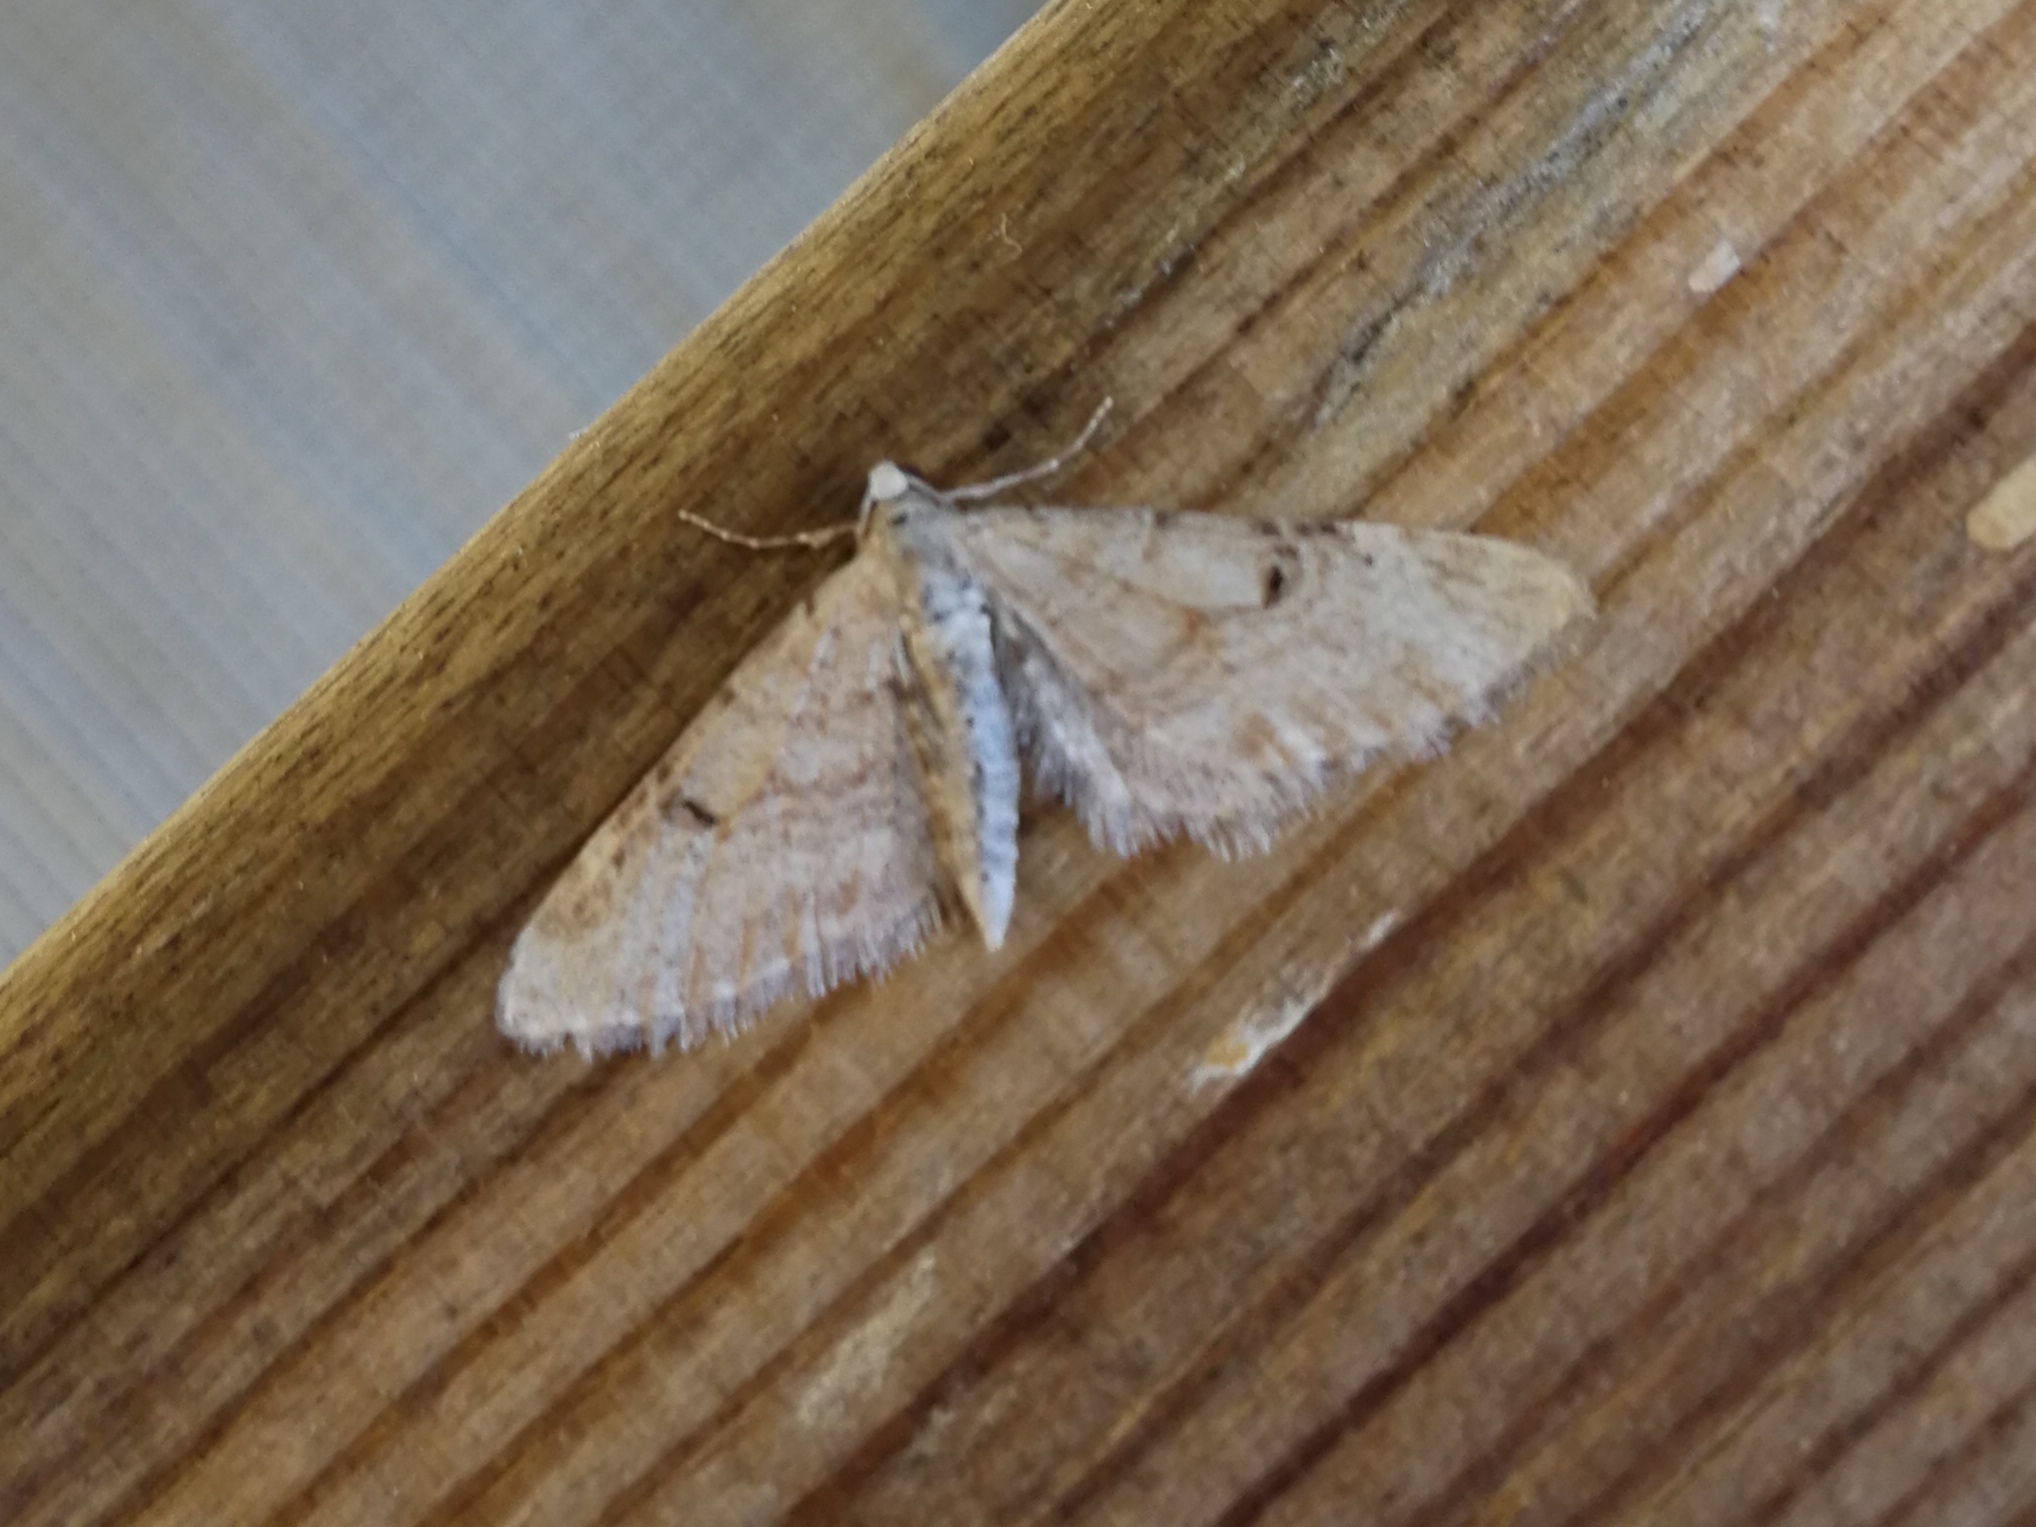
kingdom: Animalia
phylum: Arthropoda
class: Insecta
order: Lepidoptera
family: Geometridae
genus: Eupithecia
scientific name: Eupithecia indigata
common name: Ochreous pug
